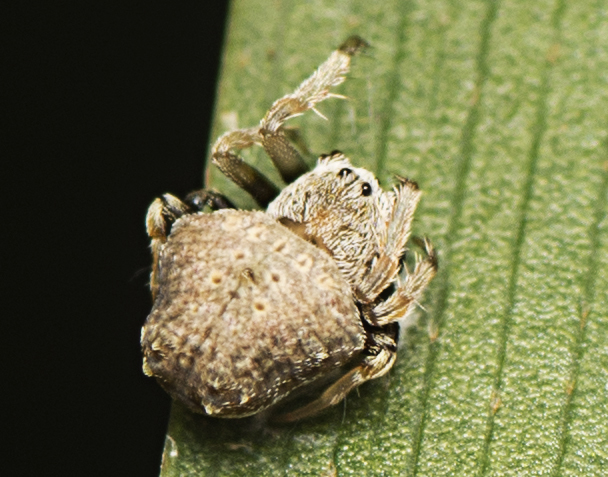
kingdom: Animalia
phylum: Arthropoda
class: Arachnida
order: Araneae
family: Arkyidae
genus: Arkys
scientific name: Arkys kaszabi
